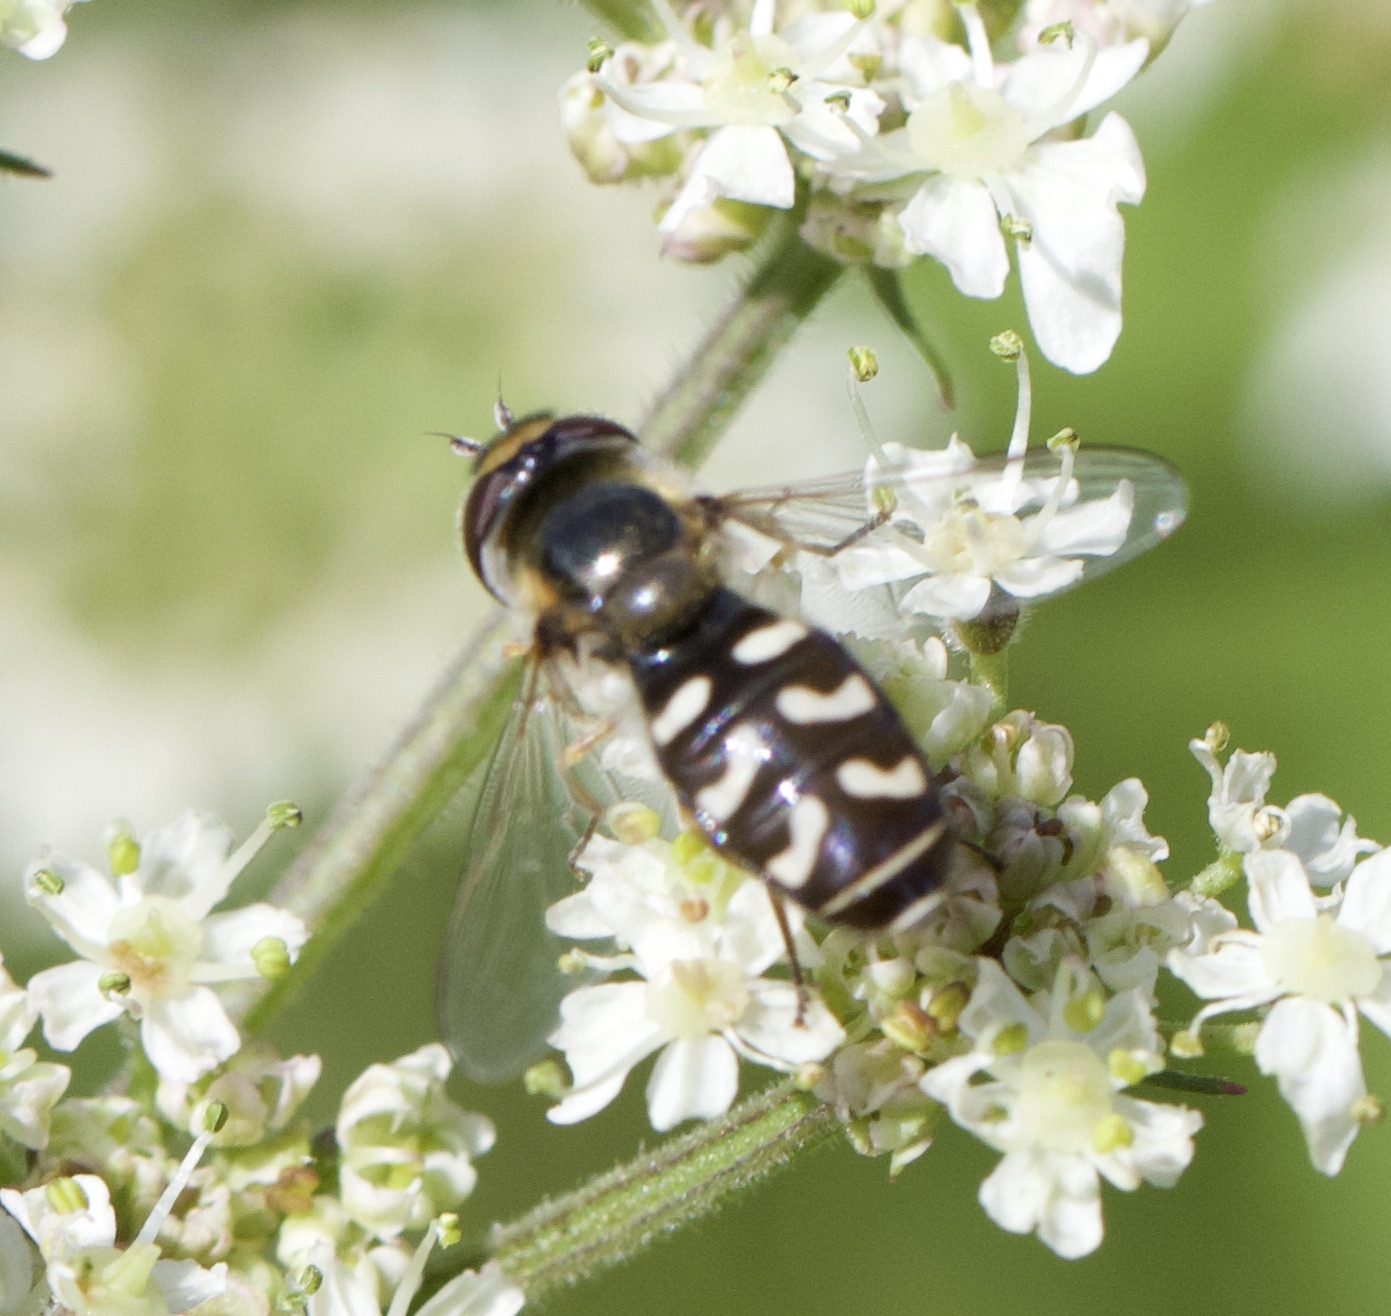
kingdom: Animalia
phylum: Arthropoda
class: Insecta
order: Diptera
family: Syrphidae
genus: Scaeva
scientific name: Scaeva pyrastri
